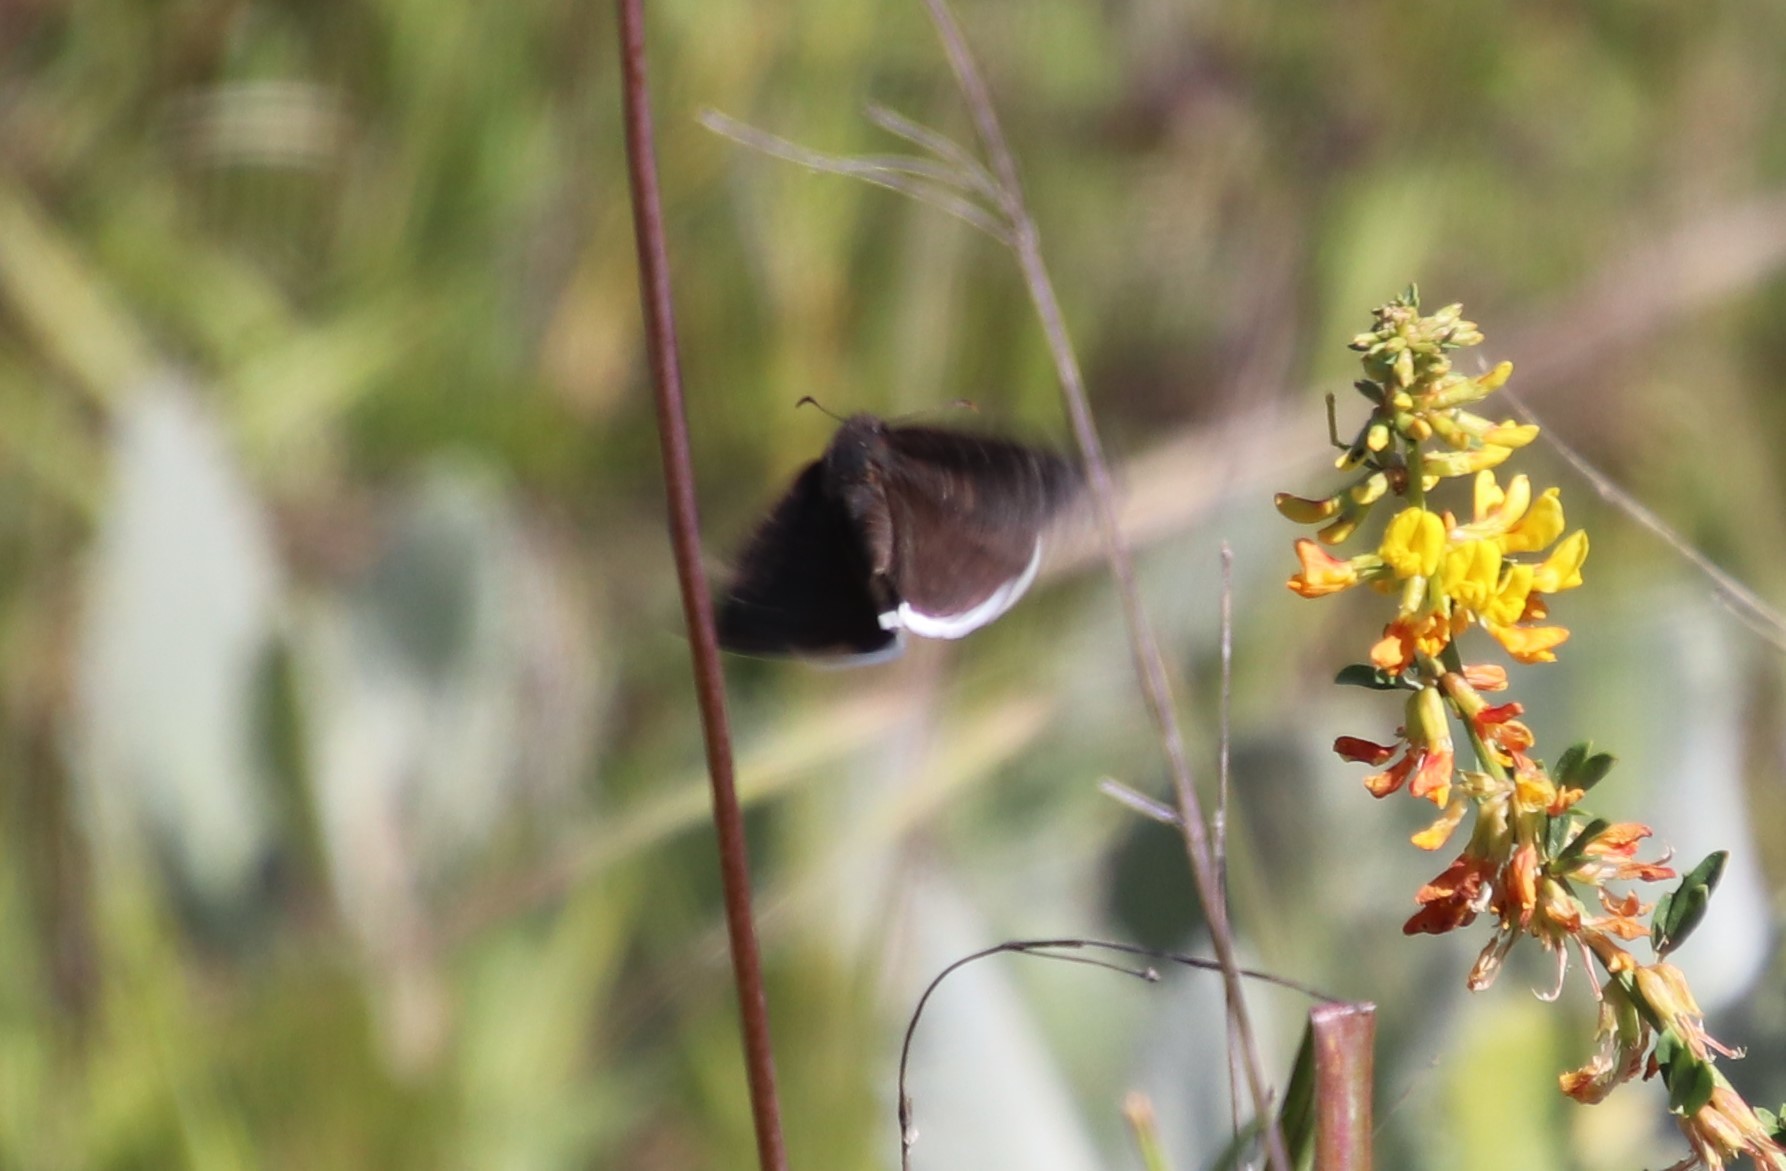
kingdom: Animalia
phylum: Arthropoda
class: Insecta
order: Lepidoptera
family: Hesperiidae
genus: Erynnis
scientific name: Erynnis funeralis
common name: Funereal duskywing
